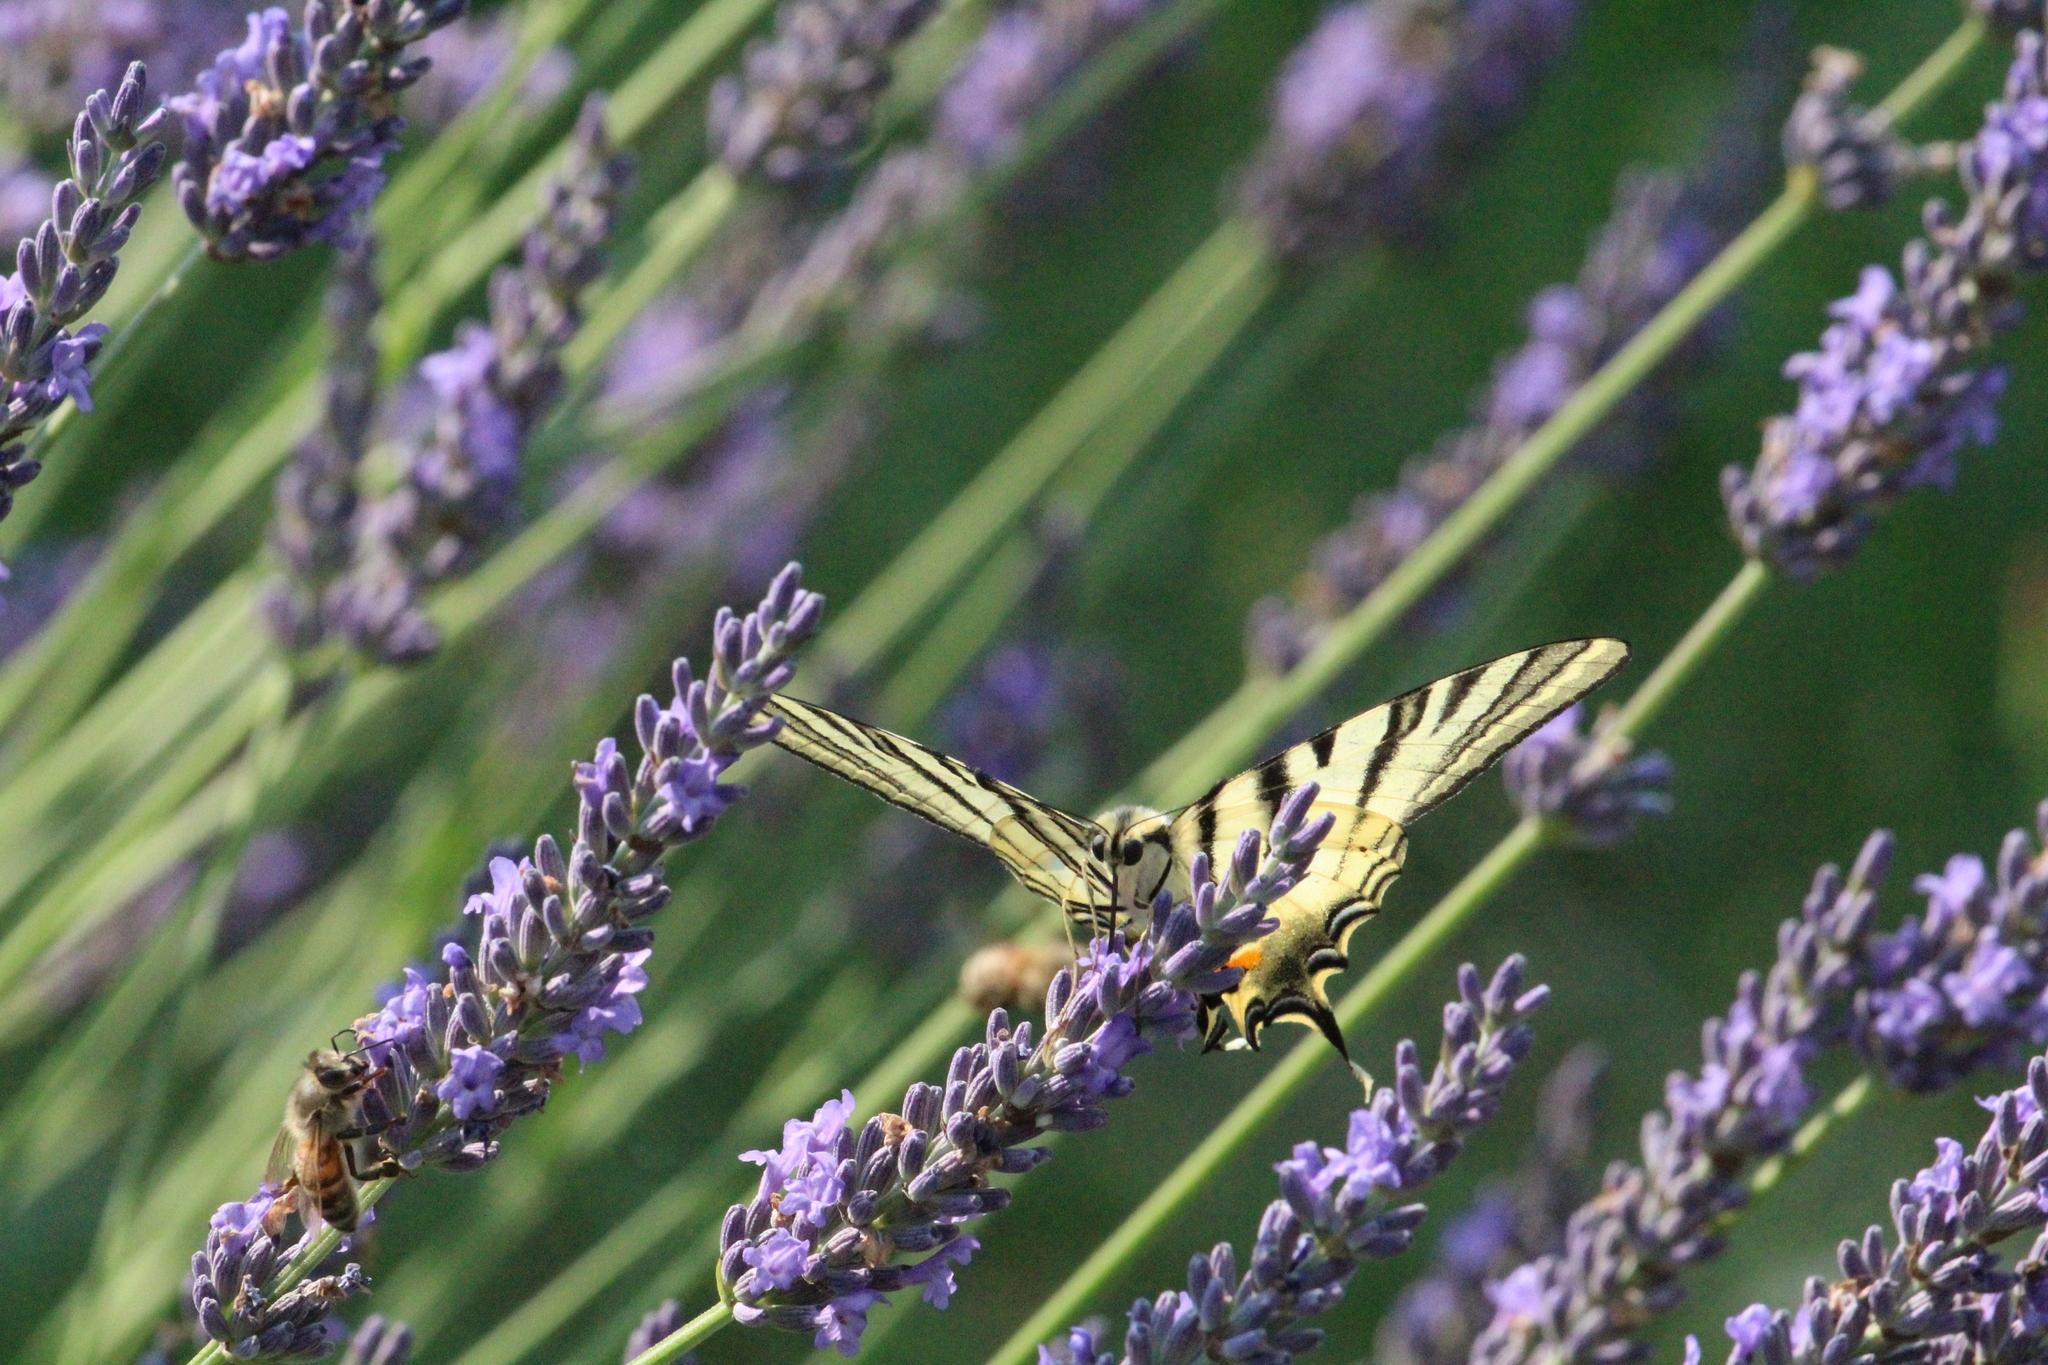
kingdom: Animalia
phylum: Arthropoda
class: Insecta
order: Lepidoptera
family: Papilionidae
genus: Iphiclides
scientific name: Iphiclides podalirius
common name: Scarce swallowtail
